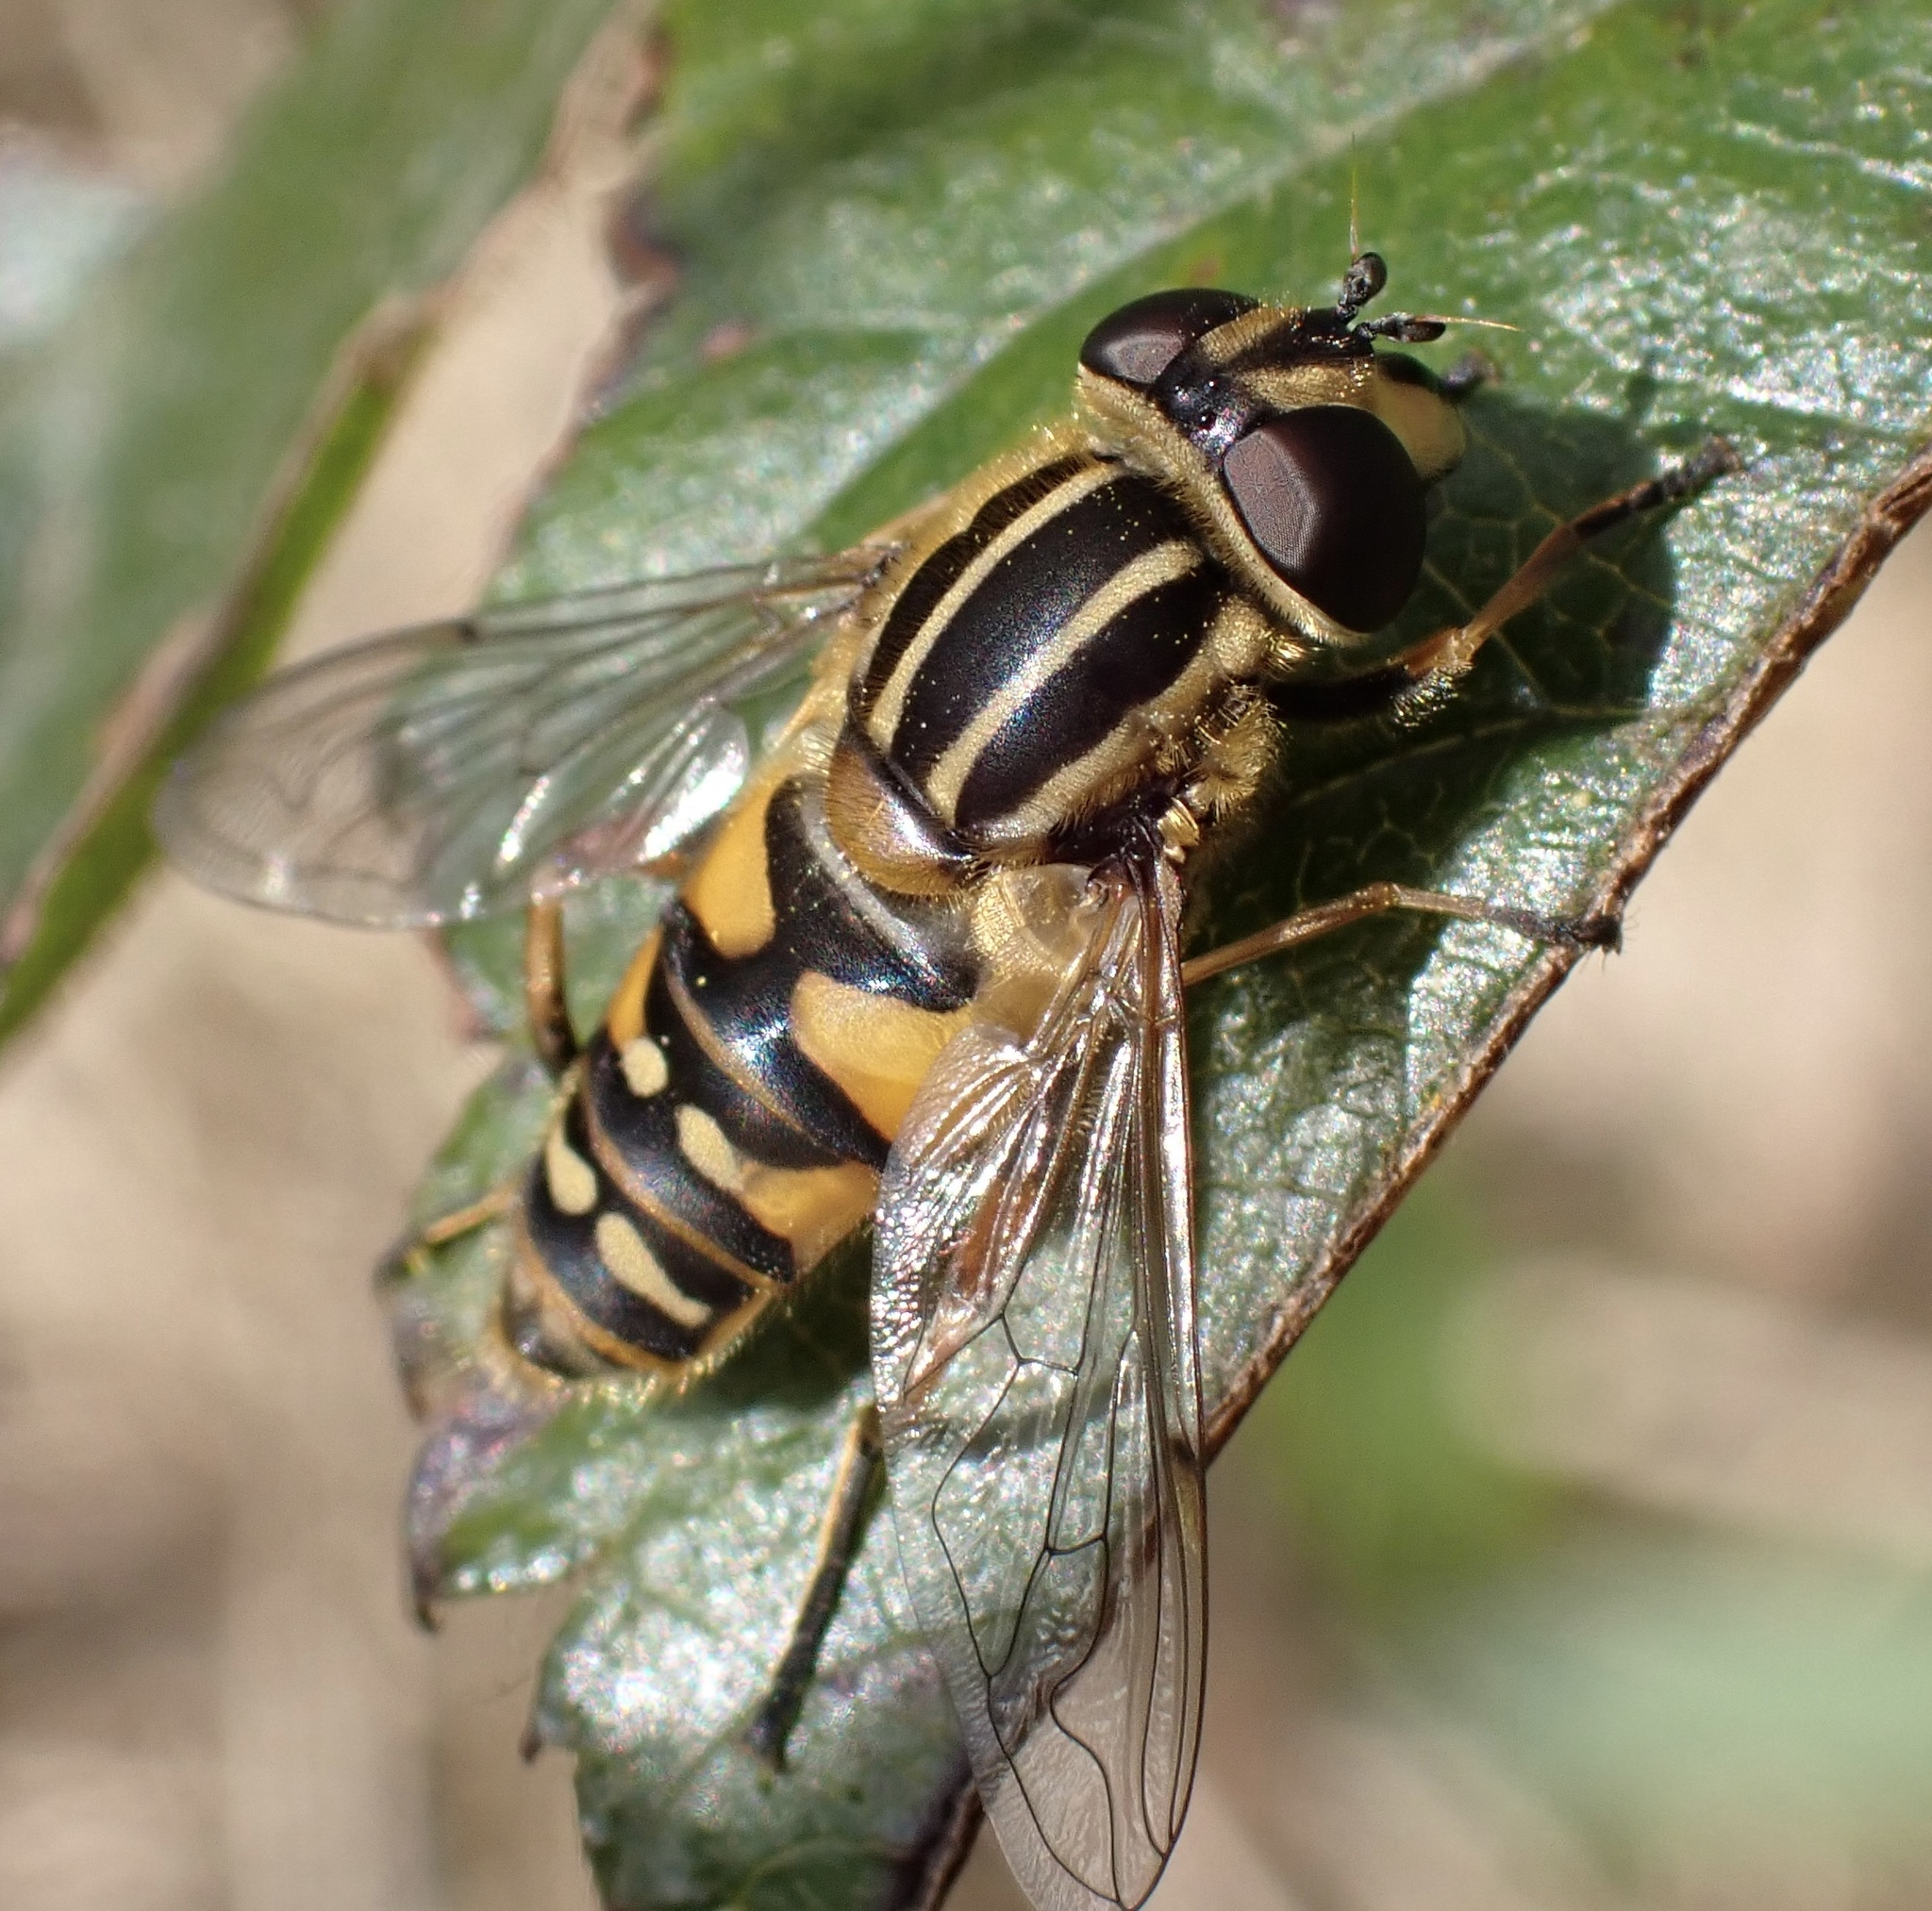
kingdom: Animalia
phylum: Arthropoda
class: Insecta
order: Diptera
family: Syrphidae
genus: Helophilus
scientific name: Helophilus pendulus
